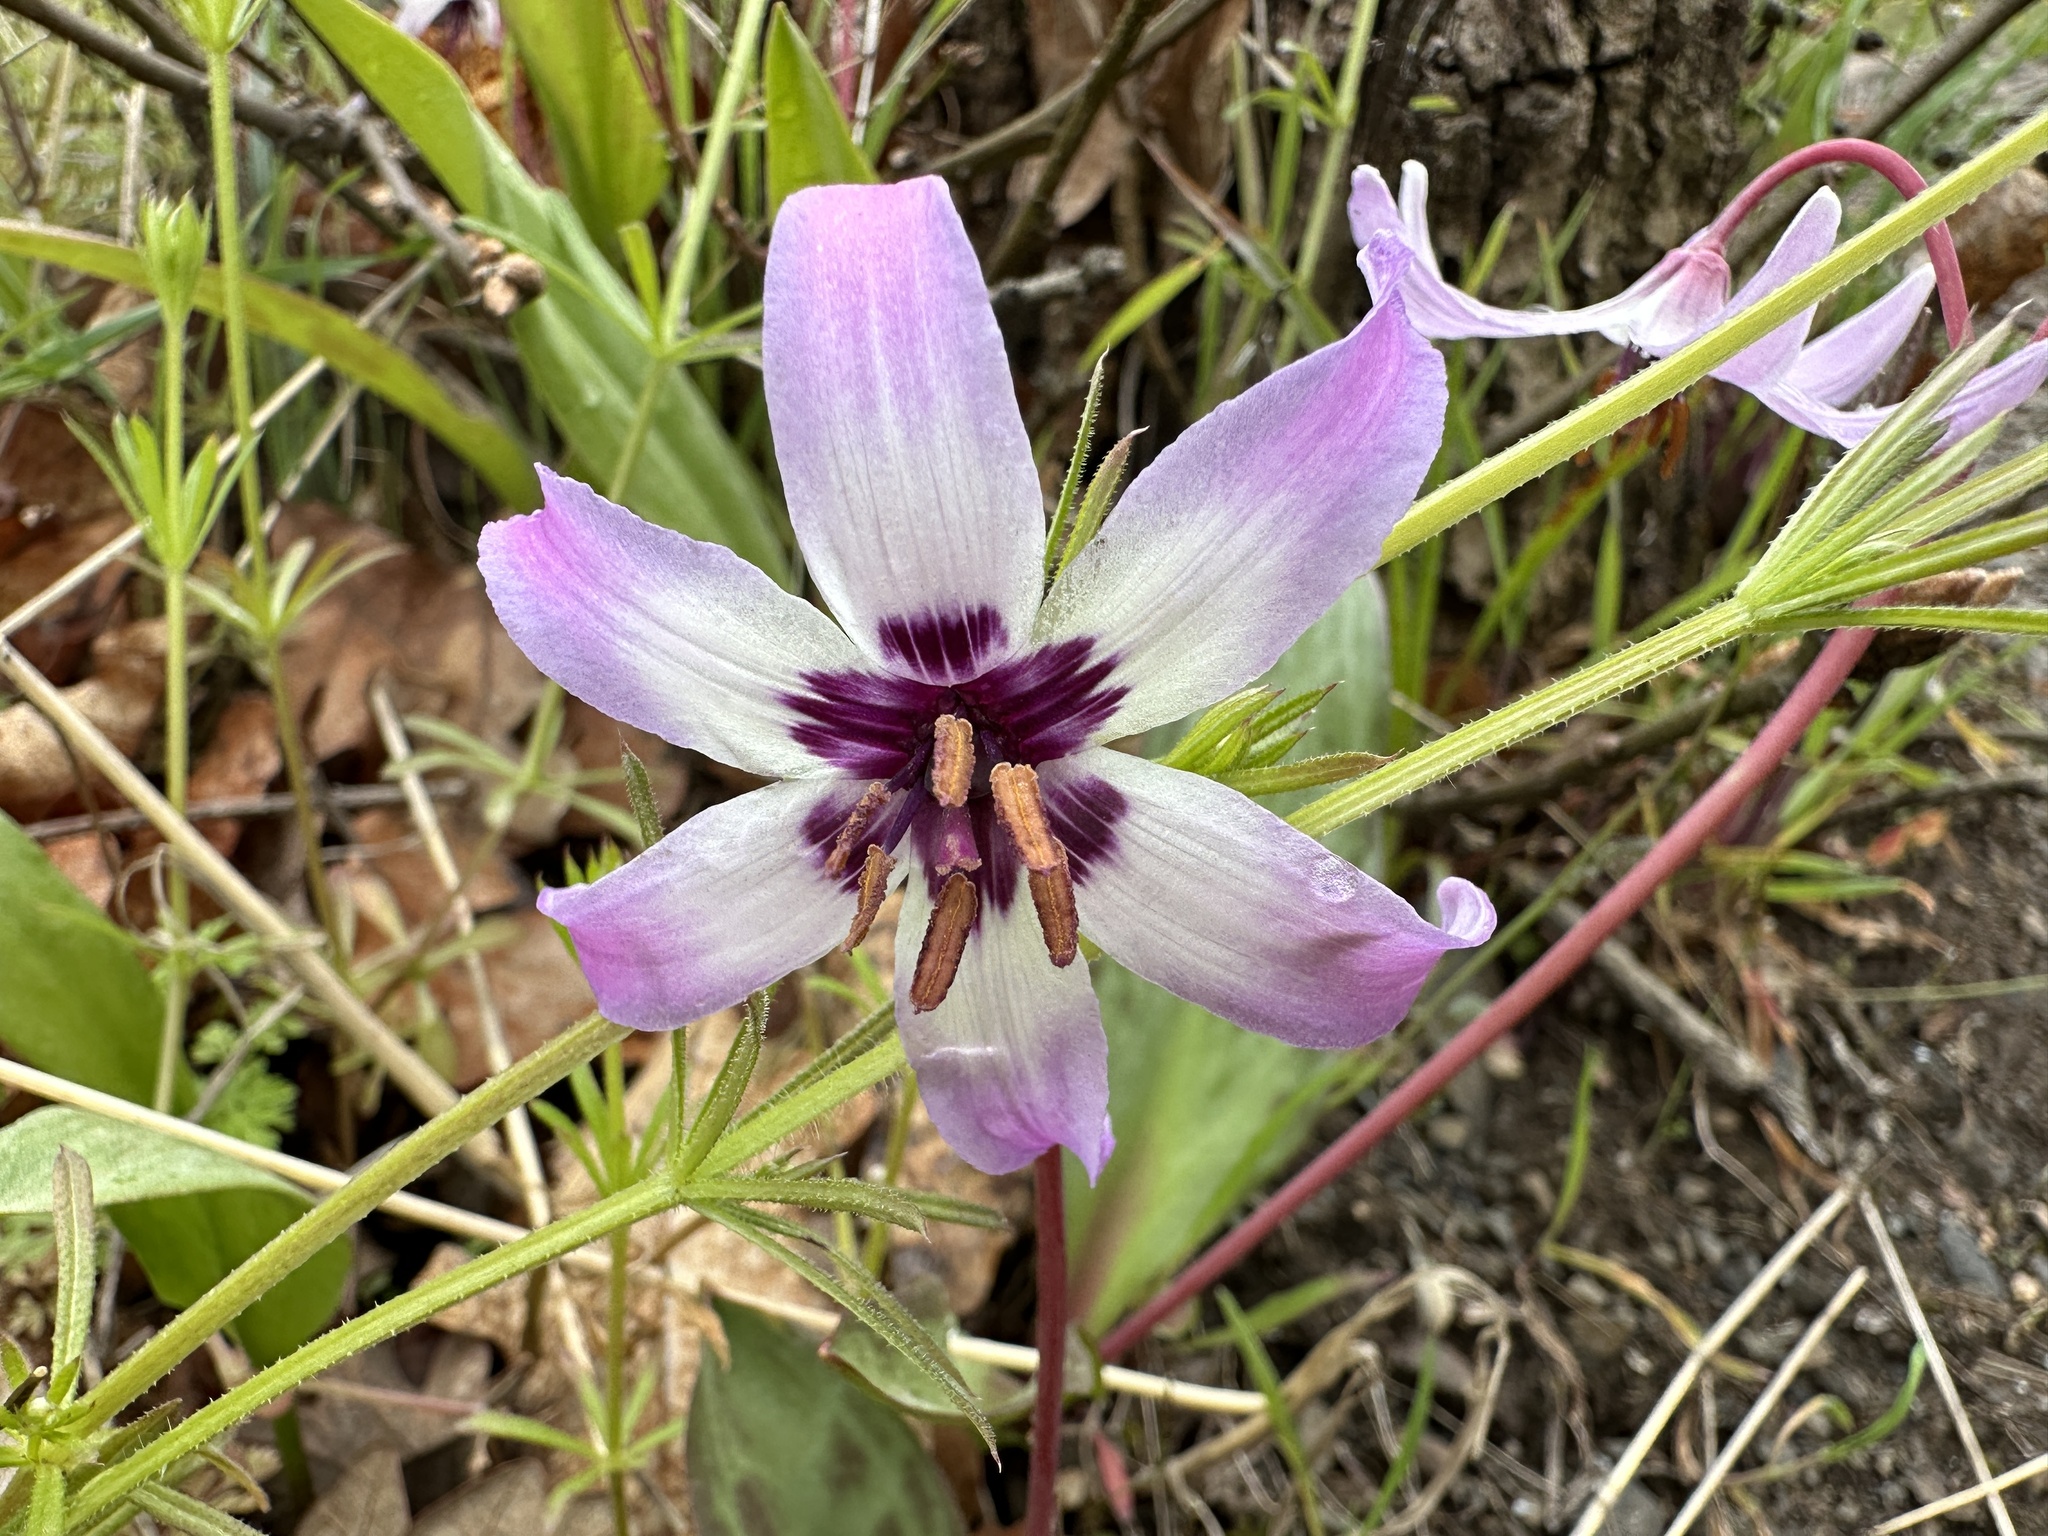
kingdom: Plantae
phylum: Tracheophyta
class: Liliopsida
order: Liliales
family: Liliaceae
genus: Erythronium
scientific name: Erythronium hendersonii
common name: Henderson's fawn-lily
